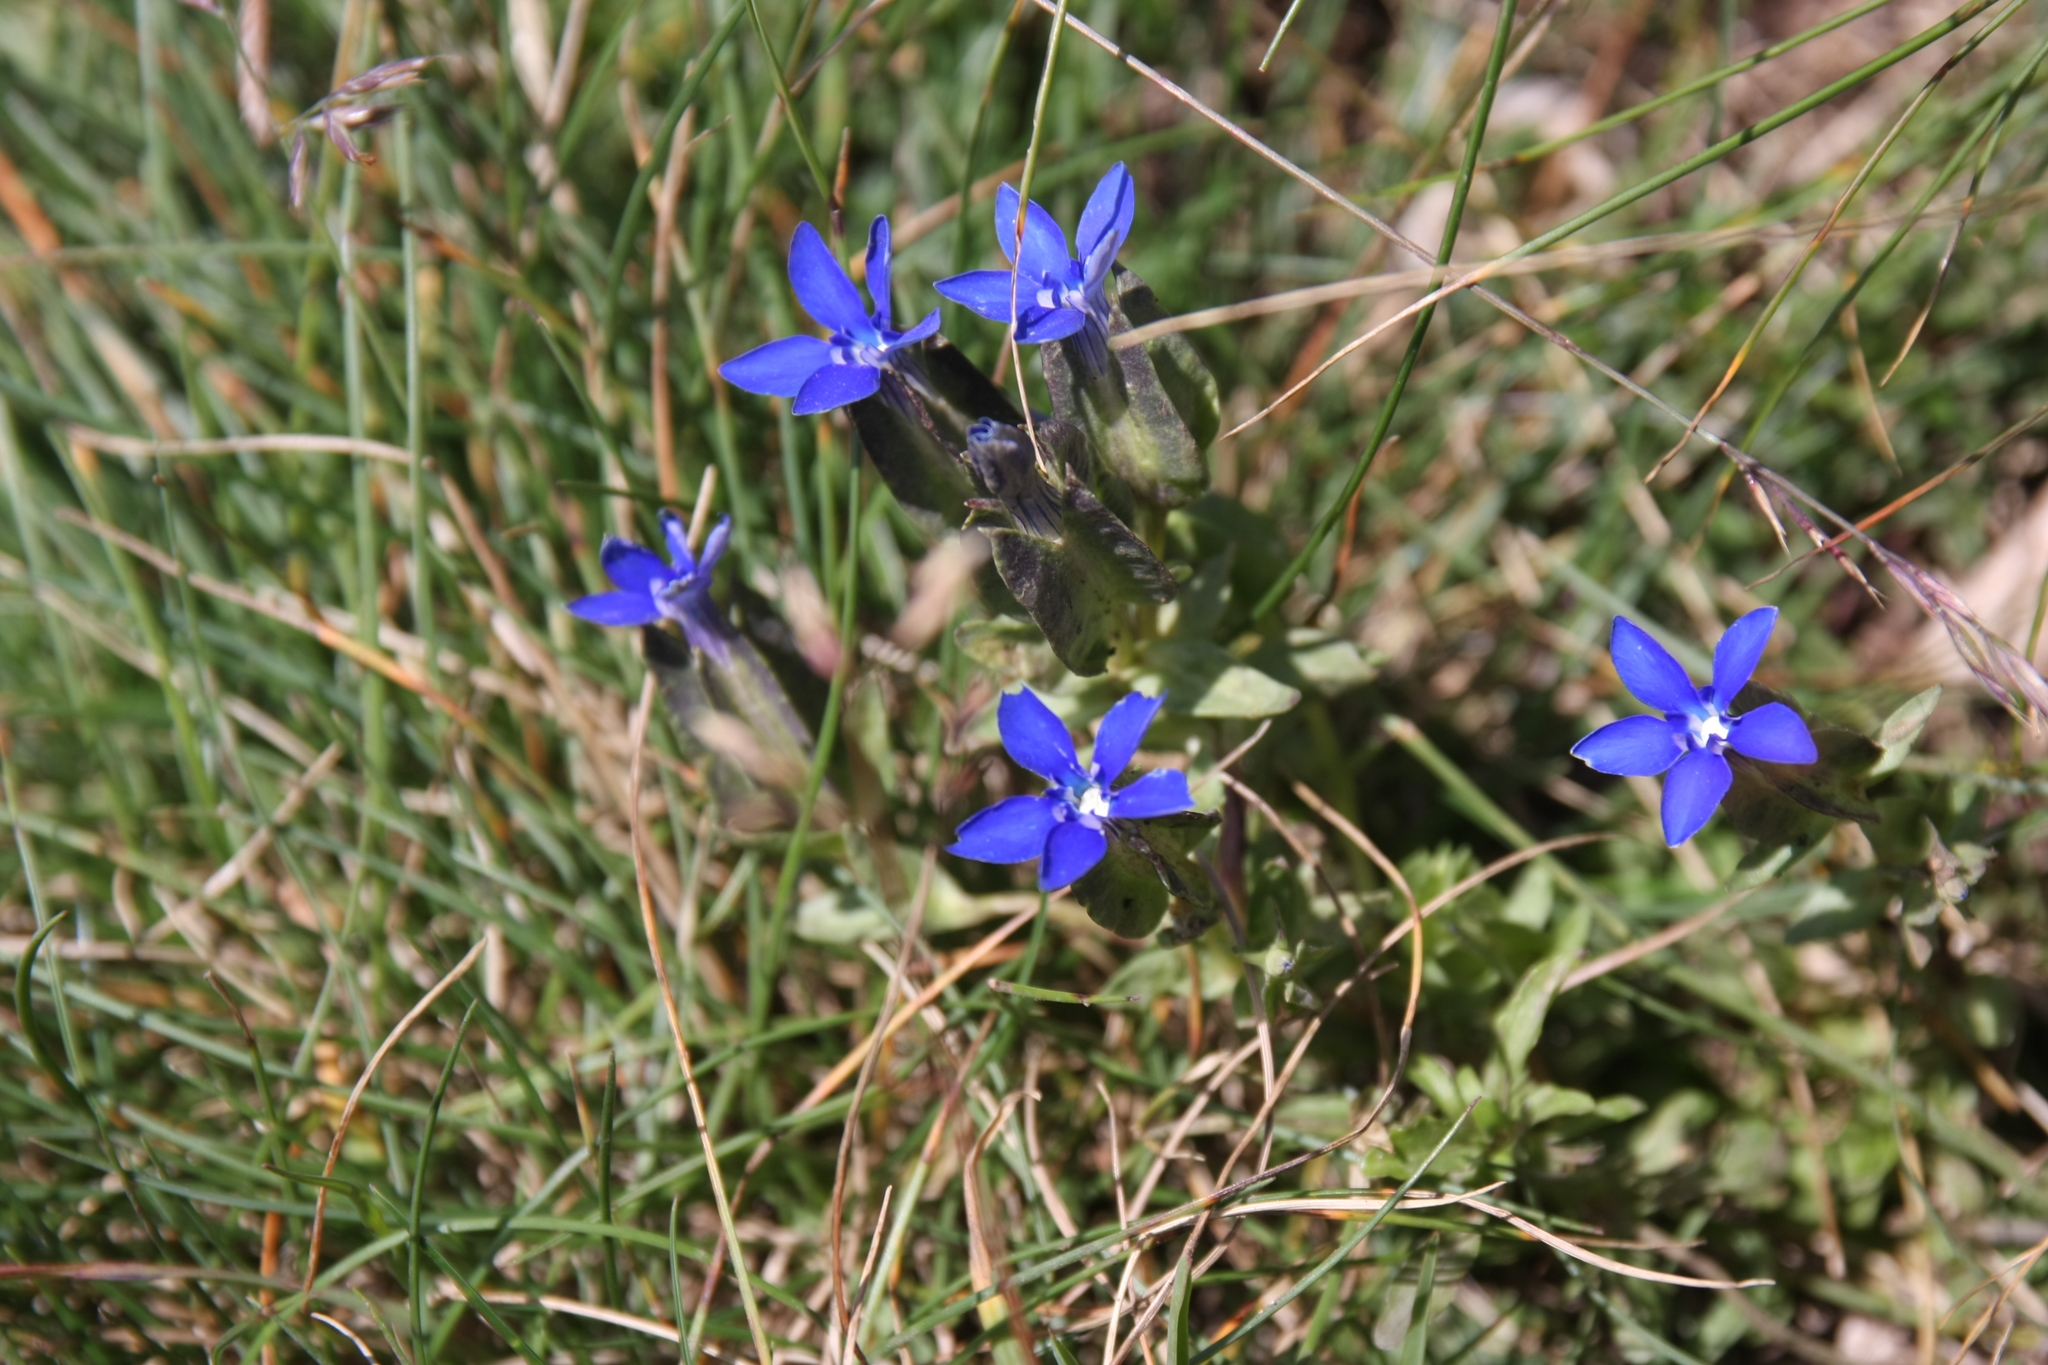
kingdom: Plantae
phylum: Tracheophyta
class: Magnoliopsida
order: Gentianales
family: Gentianaceae
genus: Gentiana
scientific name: Gentiana utriculosa
